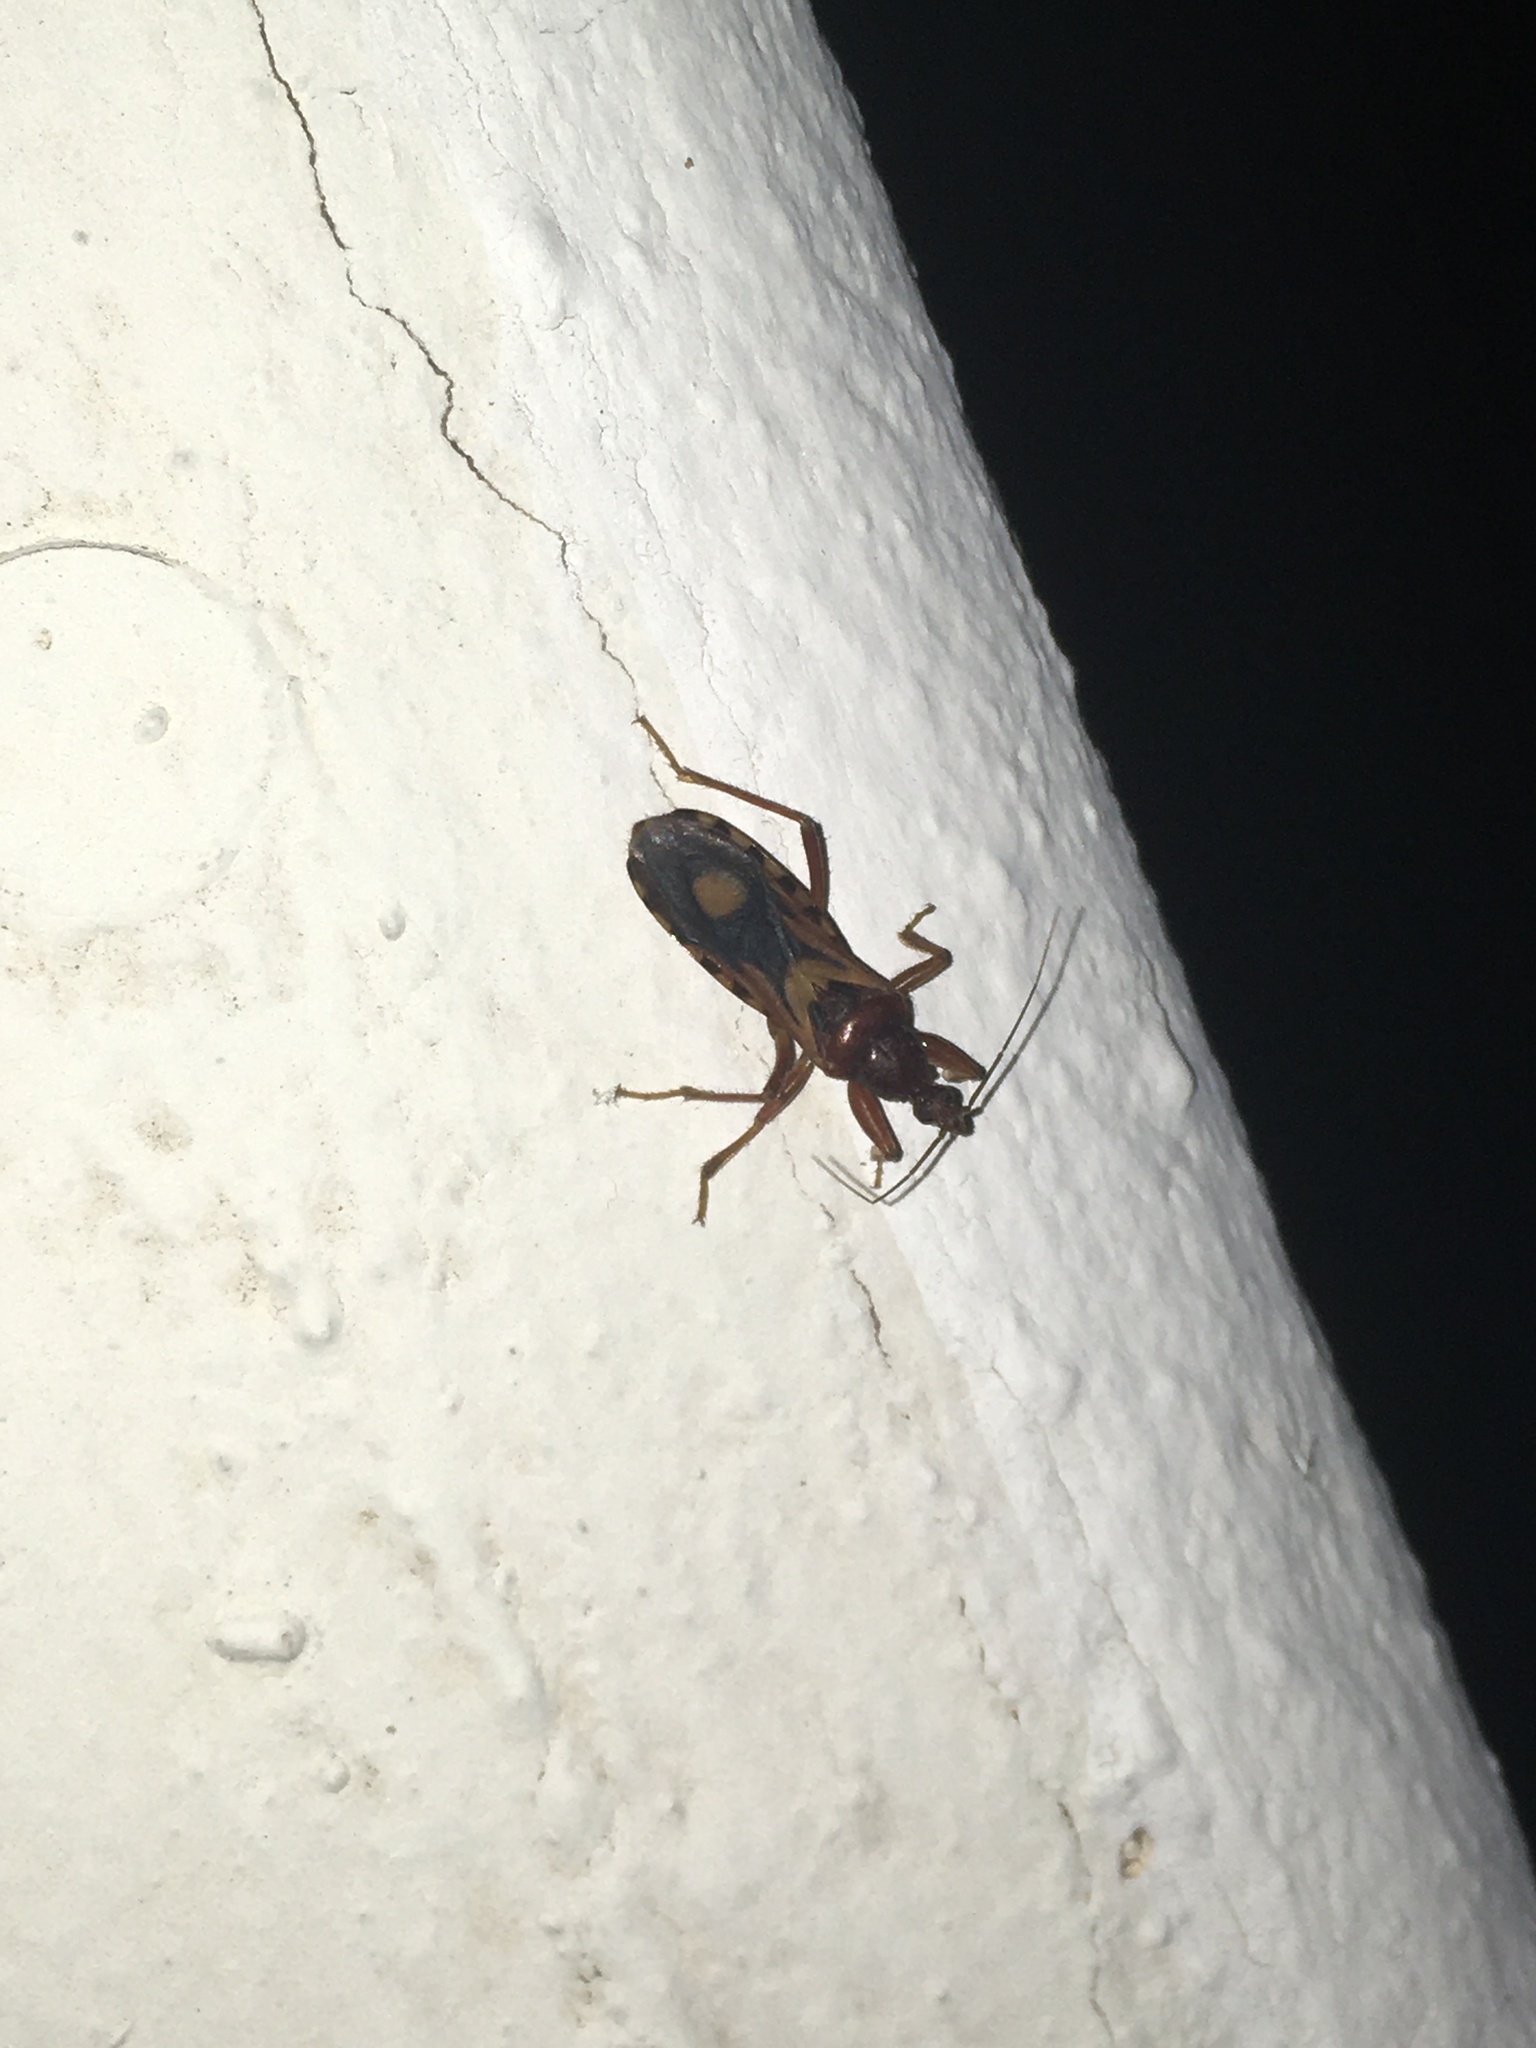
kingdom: Animalia
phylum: Arthropoda
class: Insecta
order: Hemiptera
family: Reduviidae
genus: Rasahus
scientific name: Rasahus thoracicus
